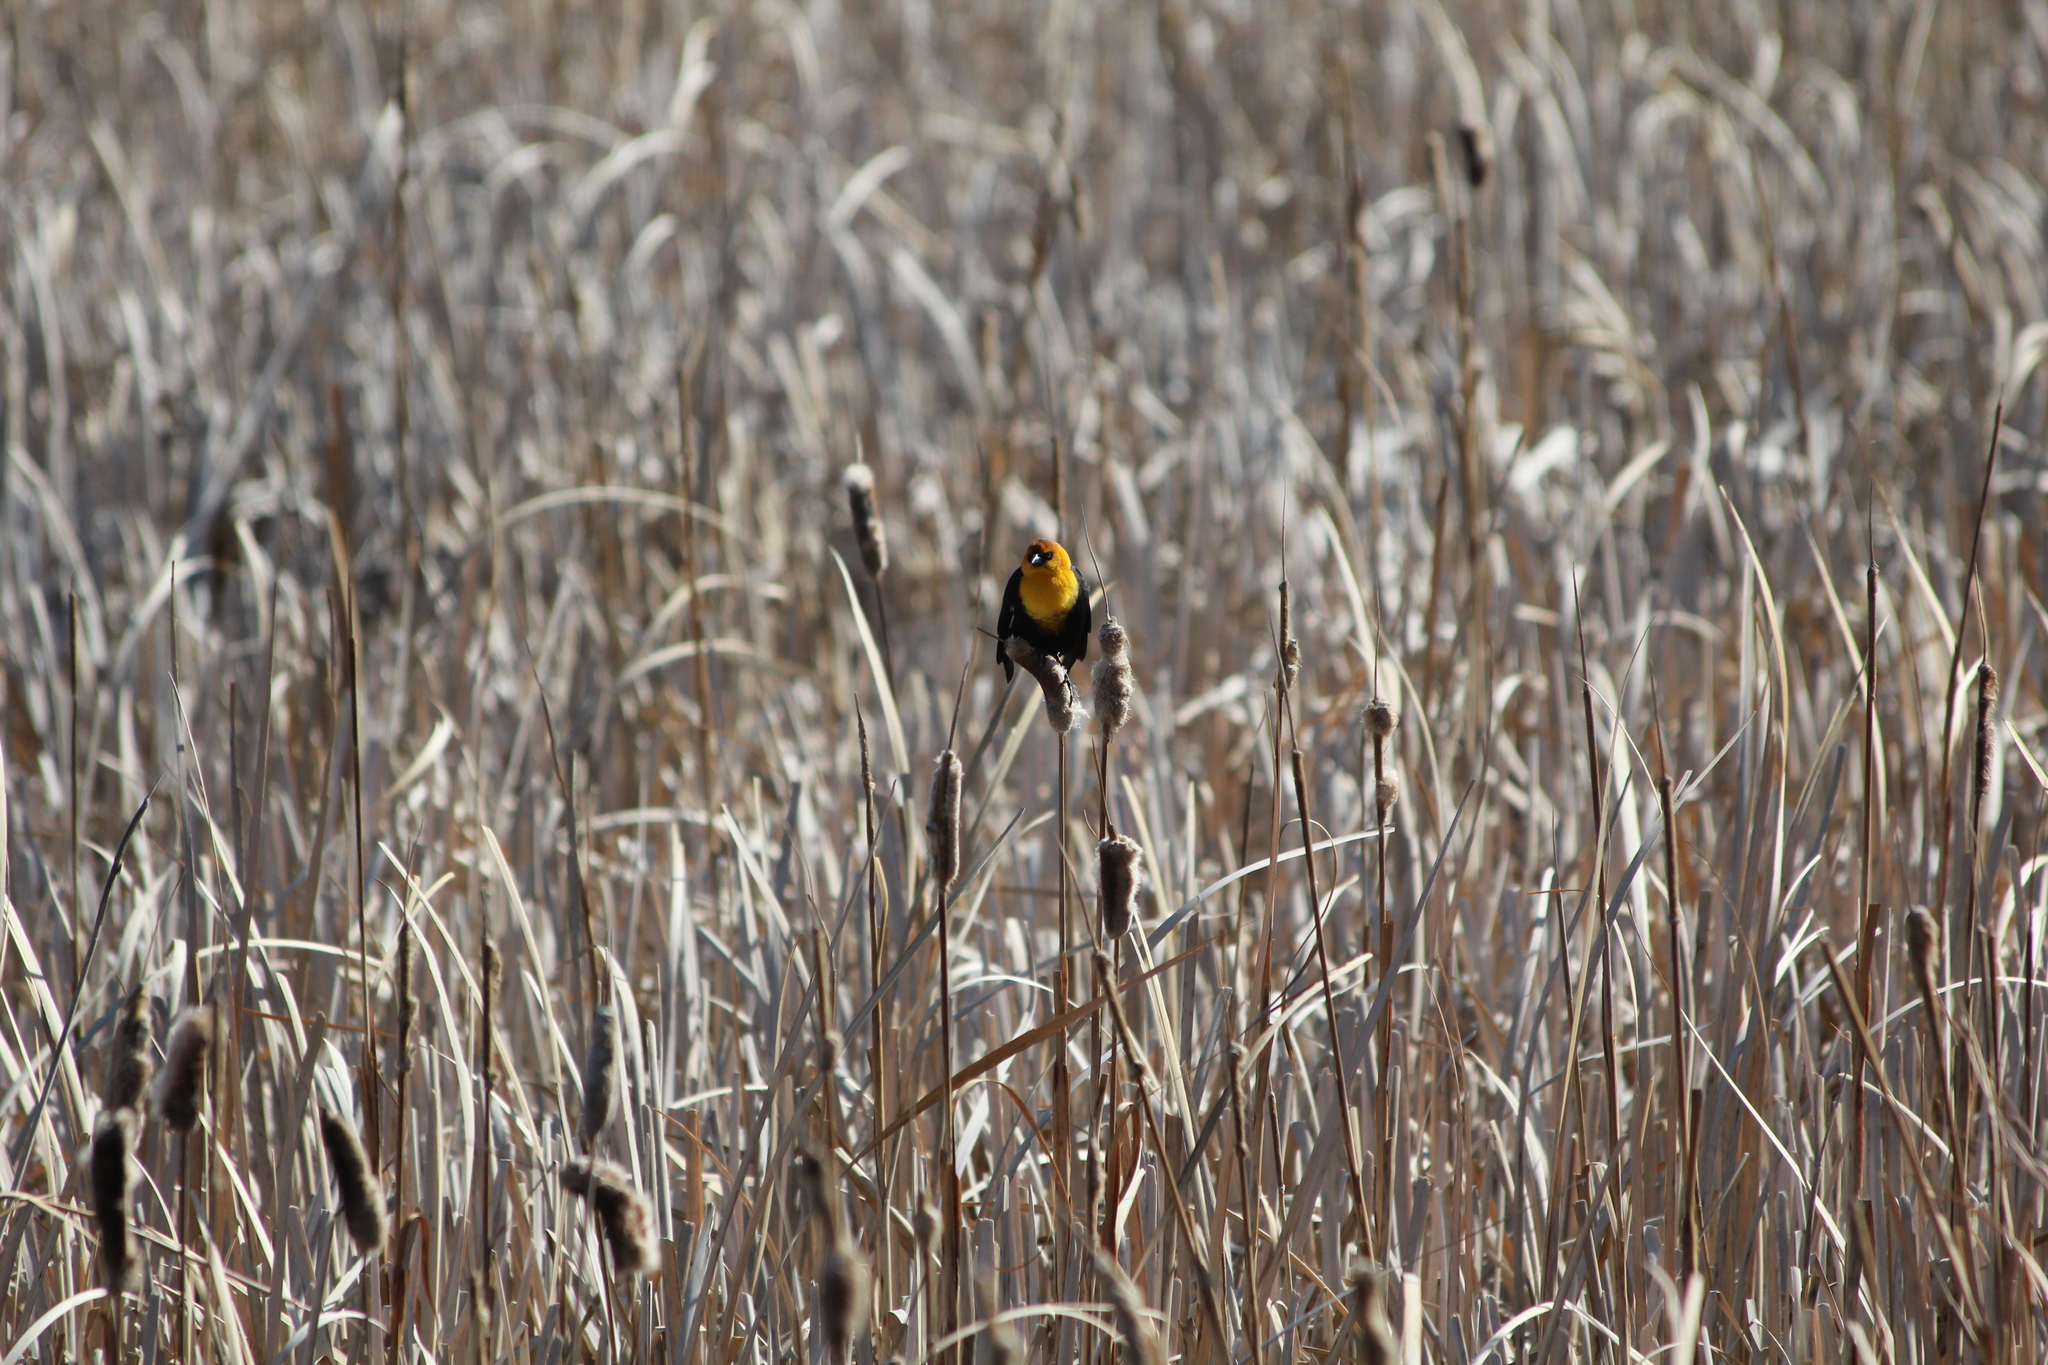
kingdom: Animalia
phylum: Chordata
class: Aves
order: Passeriformes
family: Icteridae
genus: Xanthocephalus
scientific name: Xanthocephalus xanthocephalus
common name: Yellow-headed blackbird
